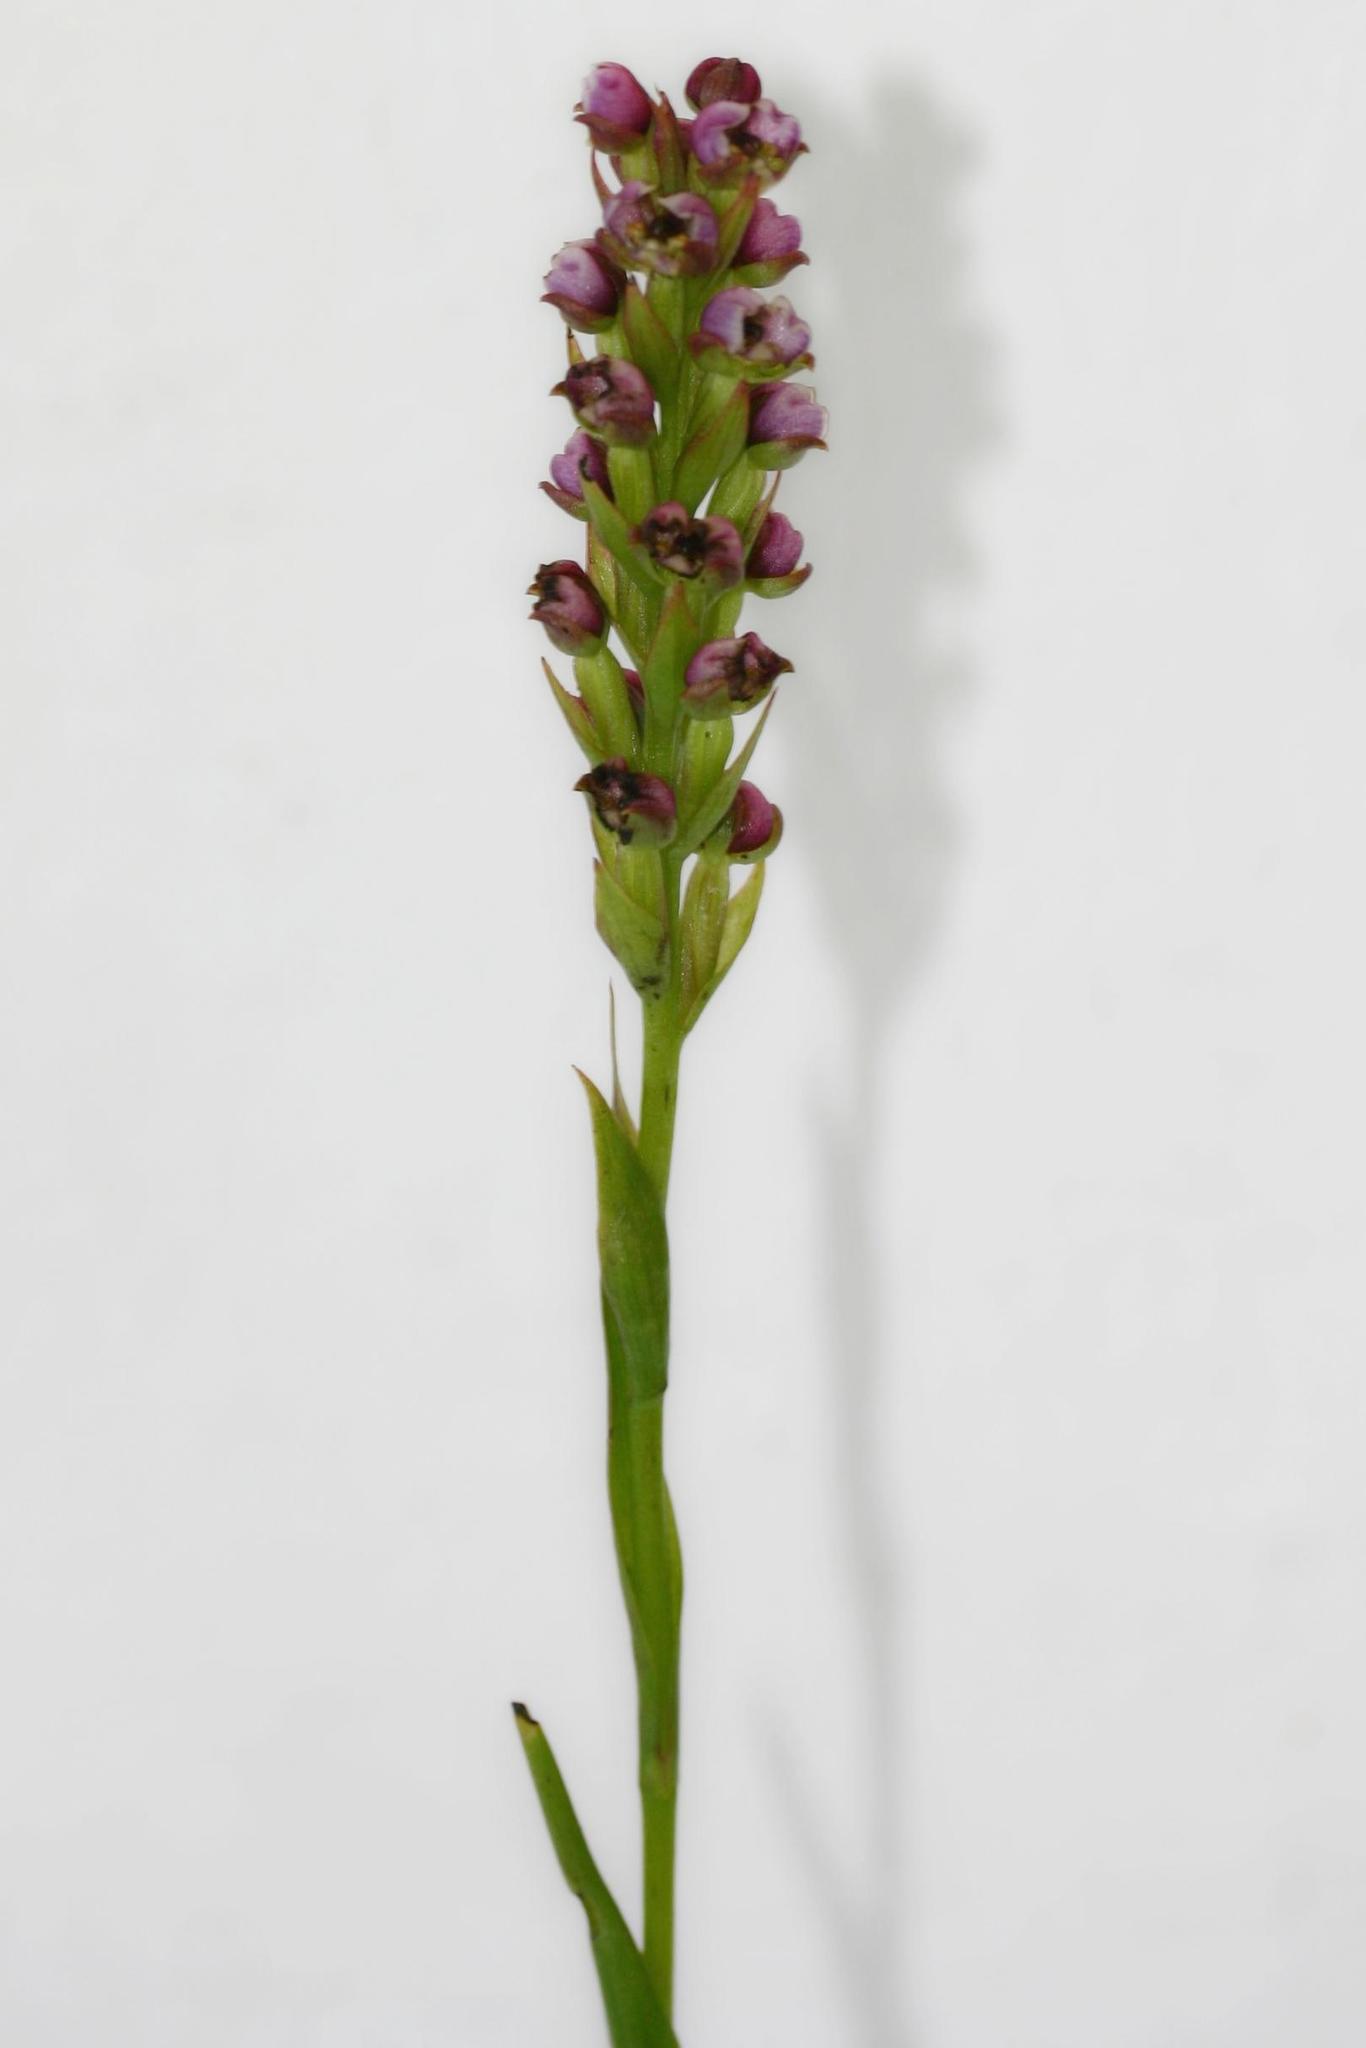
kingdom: Plantae
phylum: Tracheophyta
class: Liliopsida
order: Asparagales
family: Orchidaceae
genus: Evotella
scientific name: Evotella carnosa
